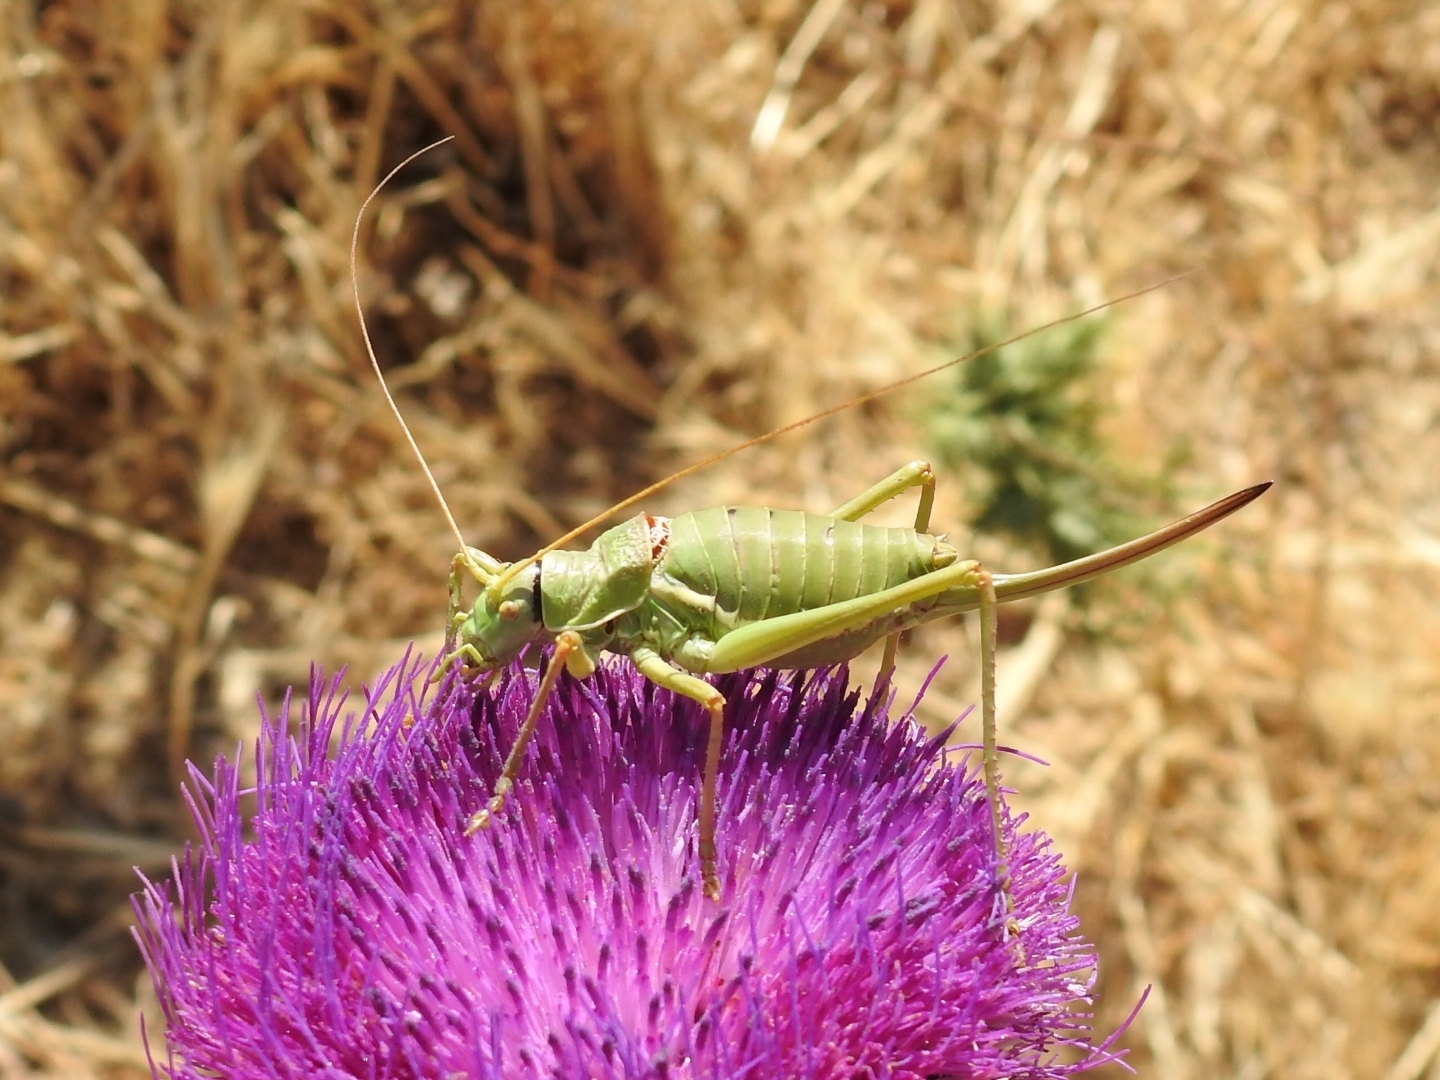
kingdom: Animalia
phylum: Arthropoda
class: Insecta
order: Orthoptera
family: Tettigoniidae
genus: Ephippiger
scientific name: Ephippiger apulus
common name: Apulian saddle bush-cricket
